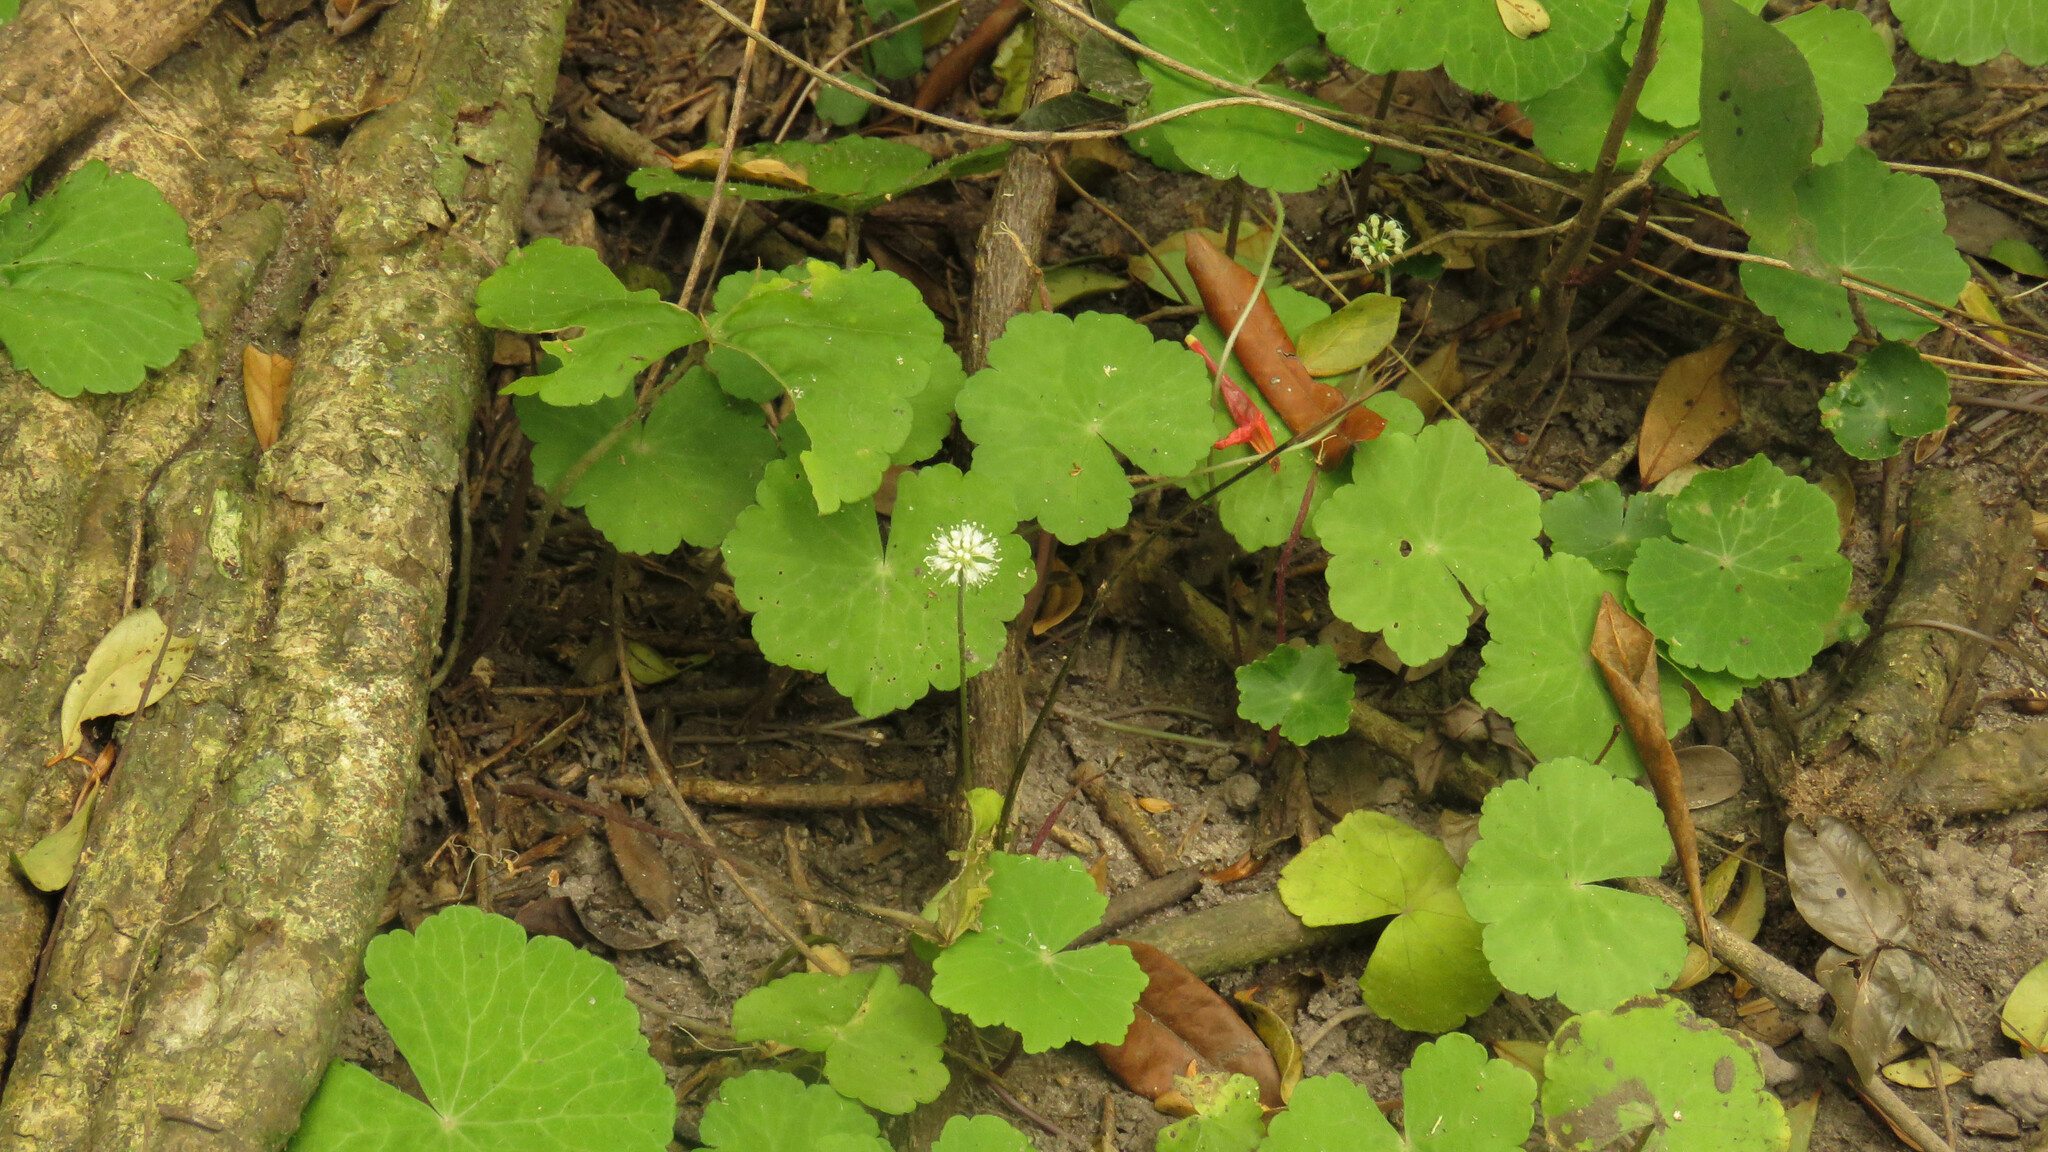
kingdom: Plantae
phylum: Tracheophyta
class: Magnoliopsida
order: Apiales
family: Araliaceae
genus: Hydrocotyle
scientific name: Hydrocotyle leucocephala
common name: Brazilian pennywort
